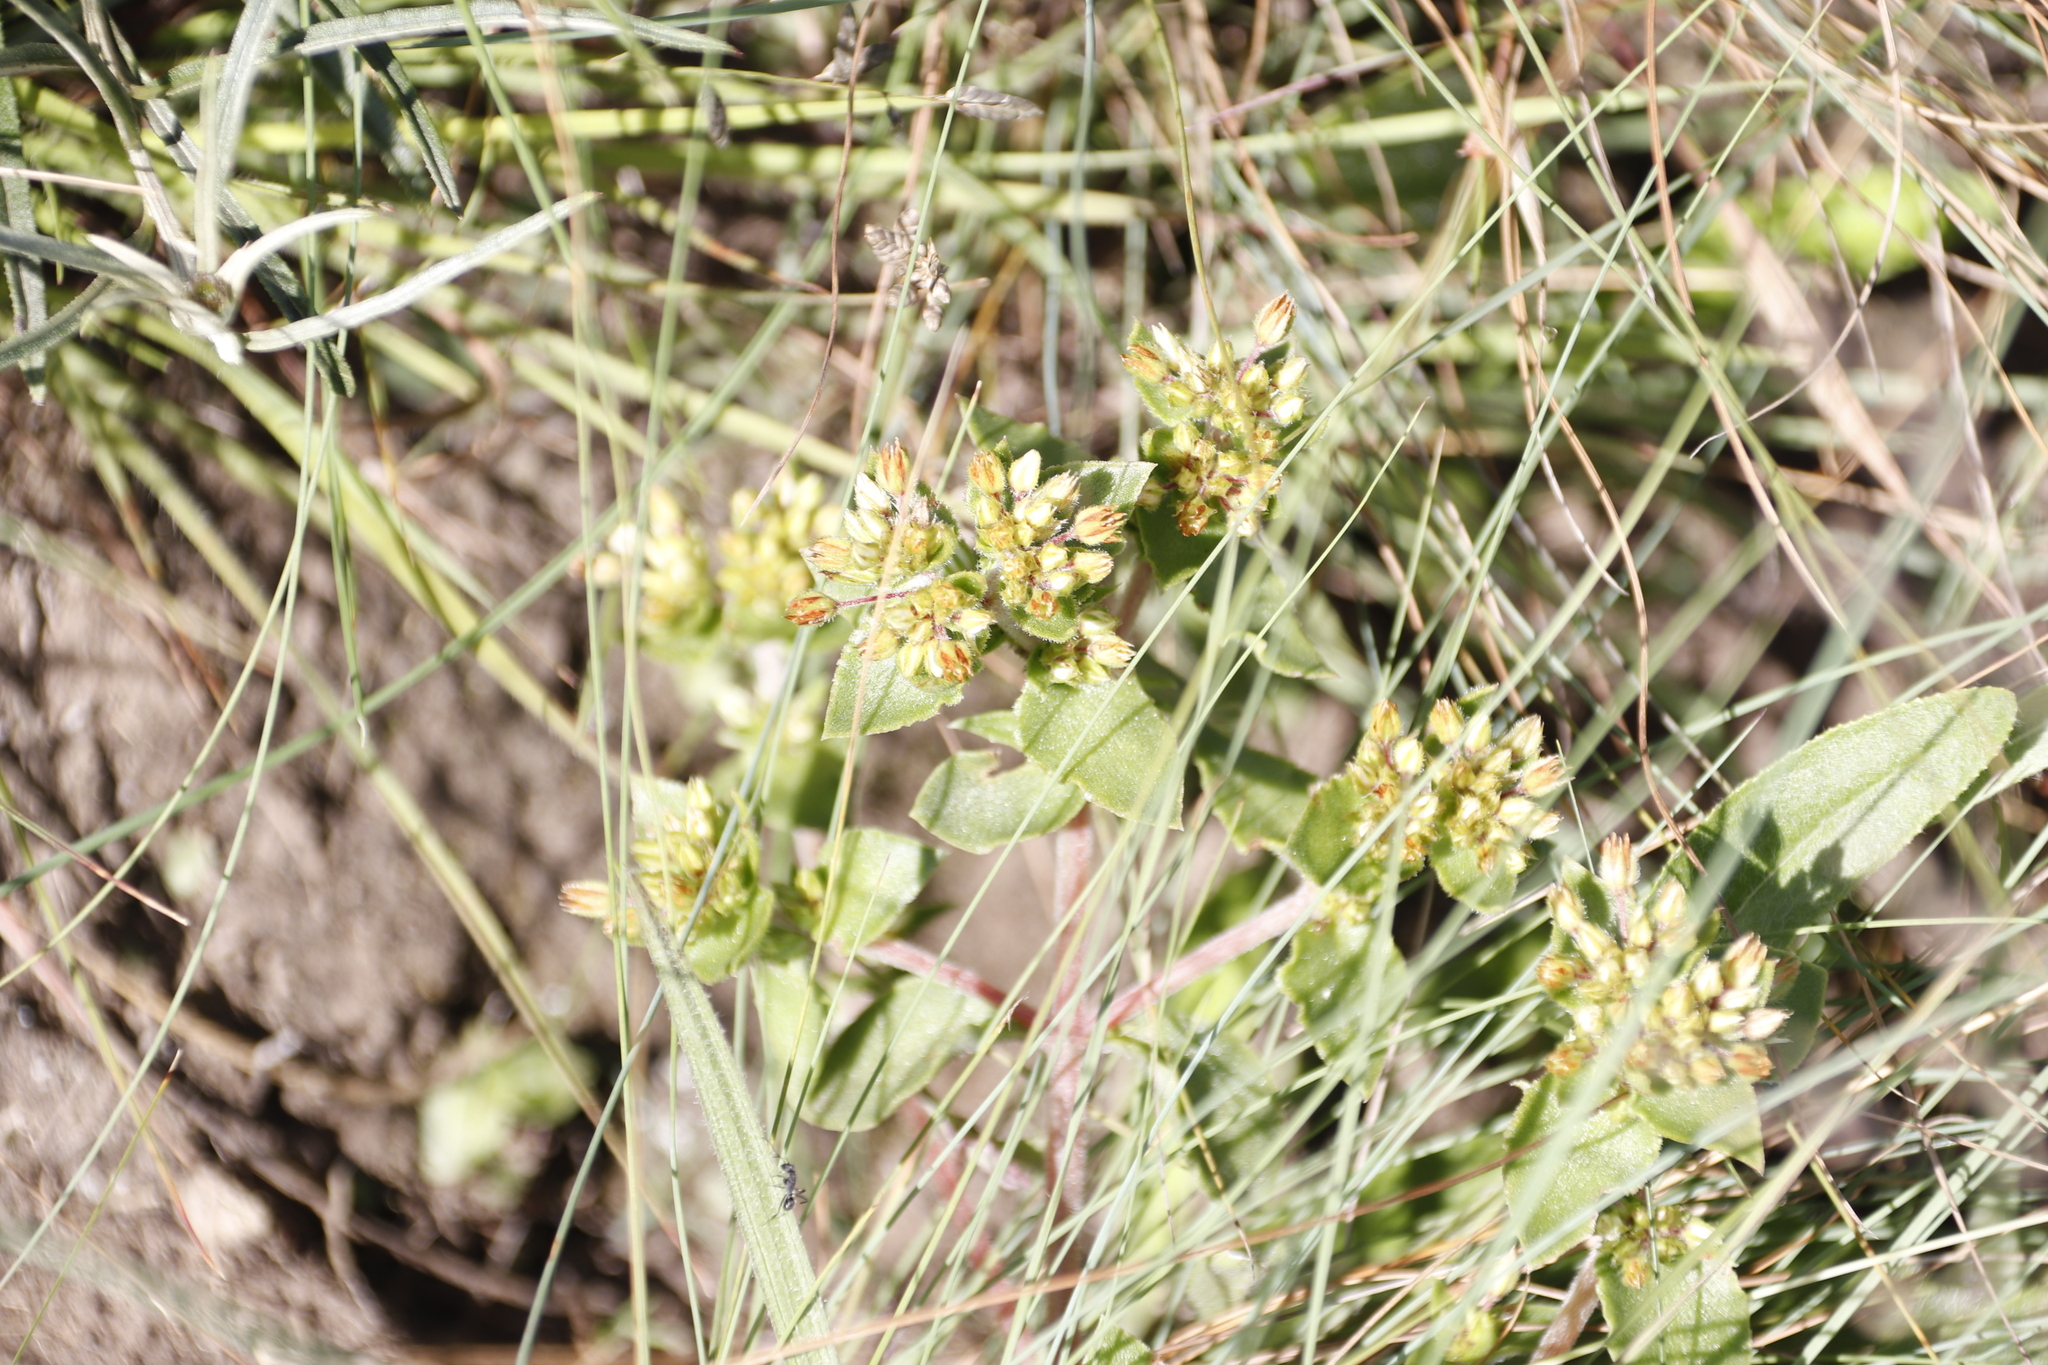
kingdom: Plantae
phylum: Tracheophyta
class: Magnoliopsida
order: Saxifragales
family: Crassulaceae
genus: Crassula
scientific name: Crassula pellucida
